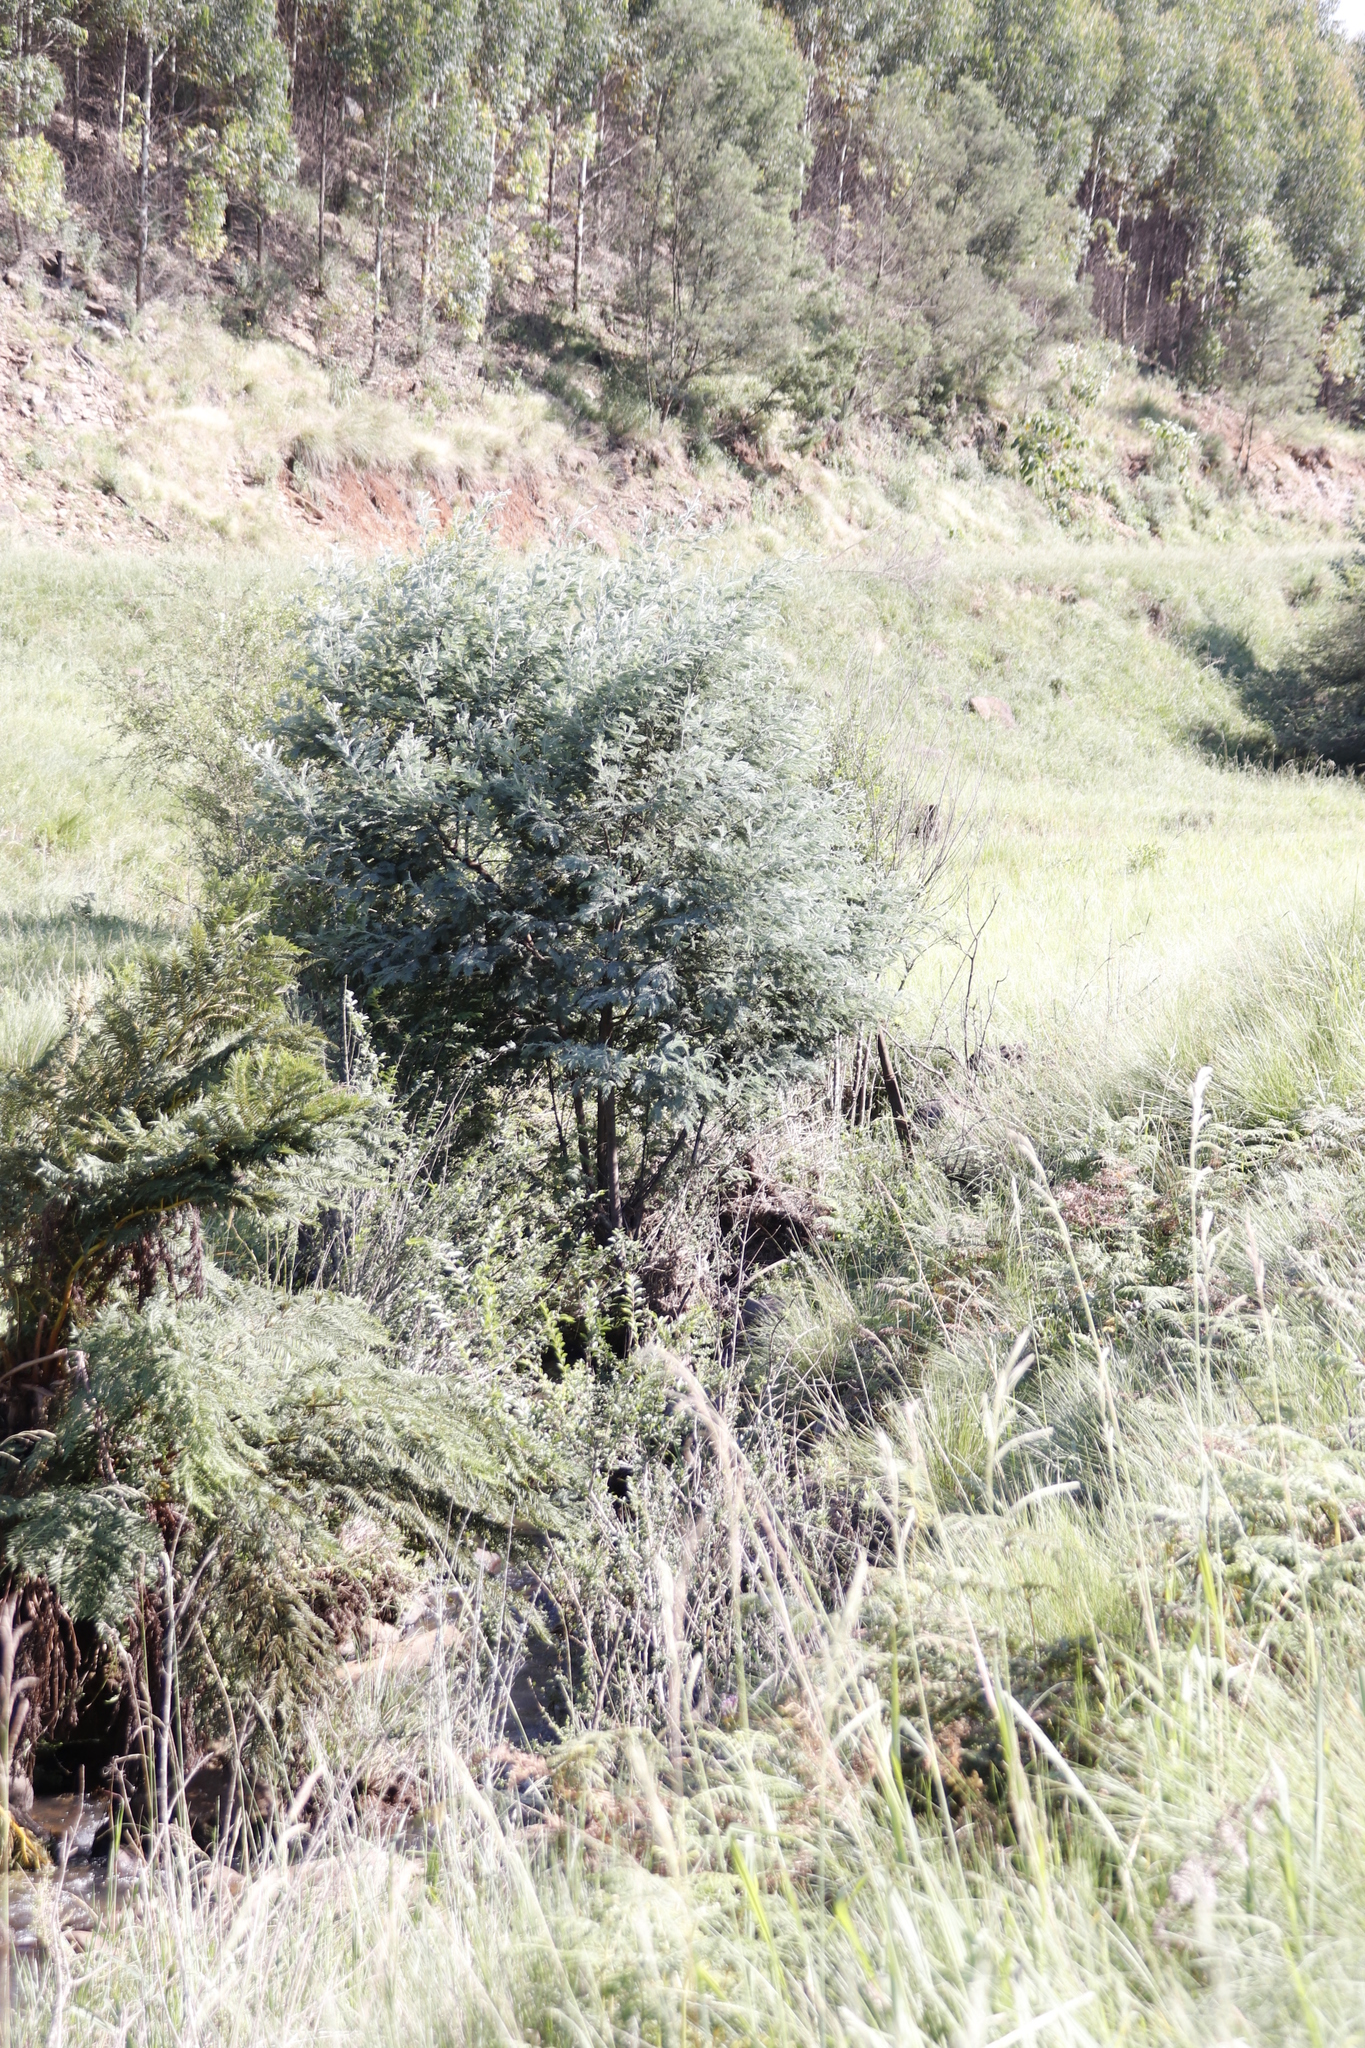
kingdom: Plantae
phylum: Tracheophyta
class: Magnoliopsida
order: Fabales
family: Fabaceae
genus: Acacia
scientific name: Acacia dealbata
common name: Silver wattle
